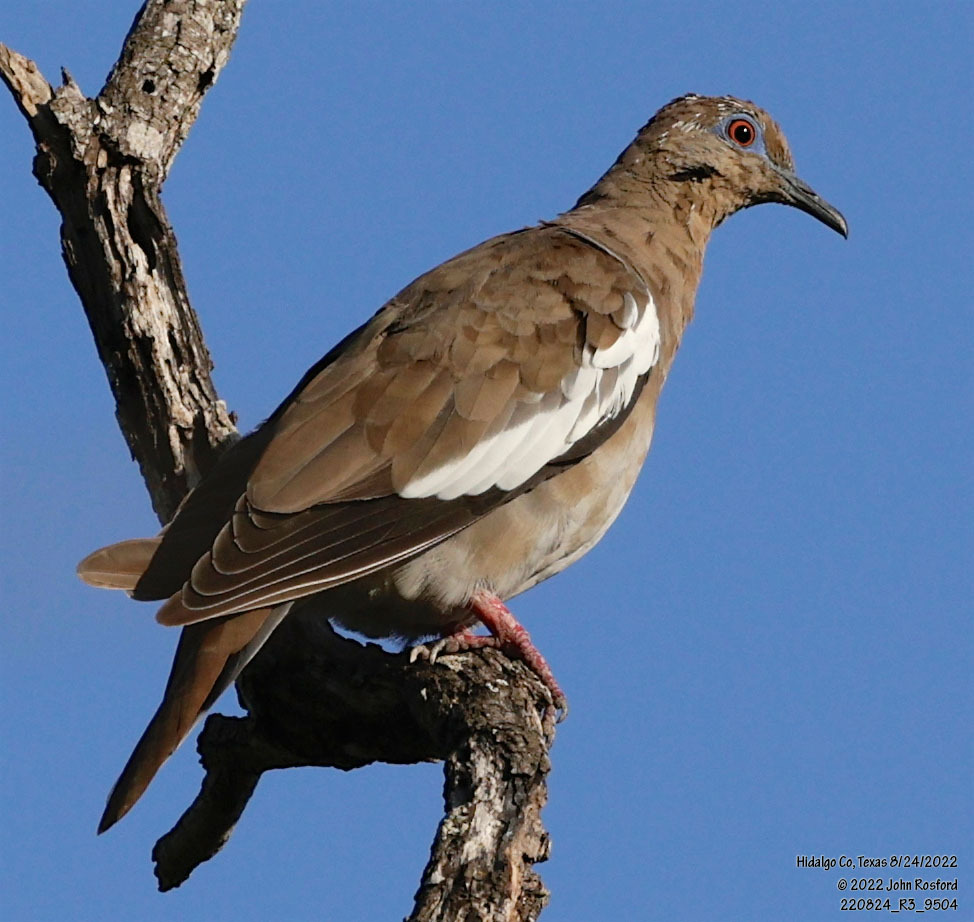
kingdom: Animalia
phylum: Chordata
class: Aves
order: Columbiformes
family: Columbidae
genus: Zenaida
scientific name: Zenaida asiatica
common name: White-winged dove
